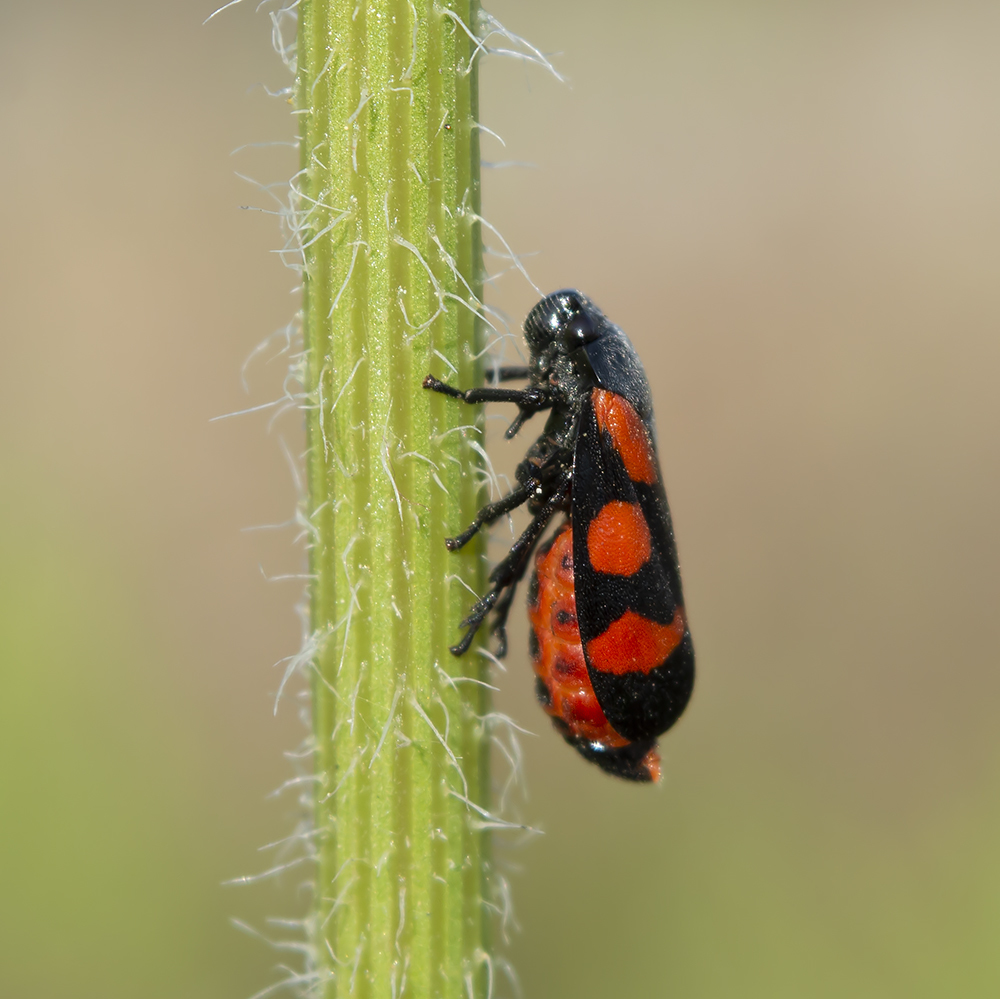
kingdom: Animalia
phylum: Arthropoda
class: Insecta
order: Hemiptera
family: Cercopidae
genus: Cercopis
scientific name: Cercopis sanguinolenta
